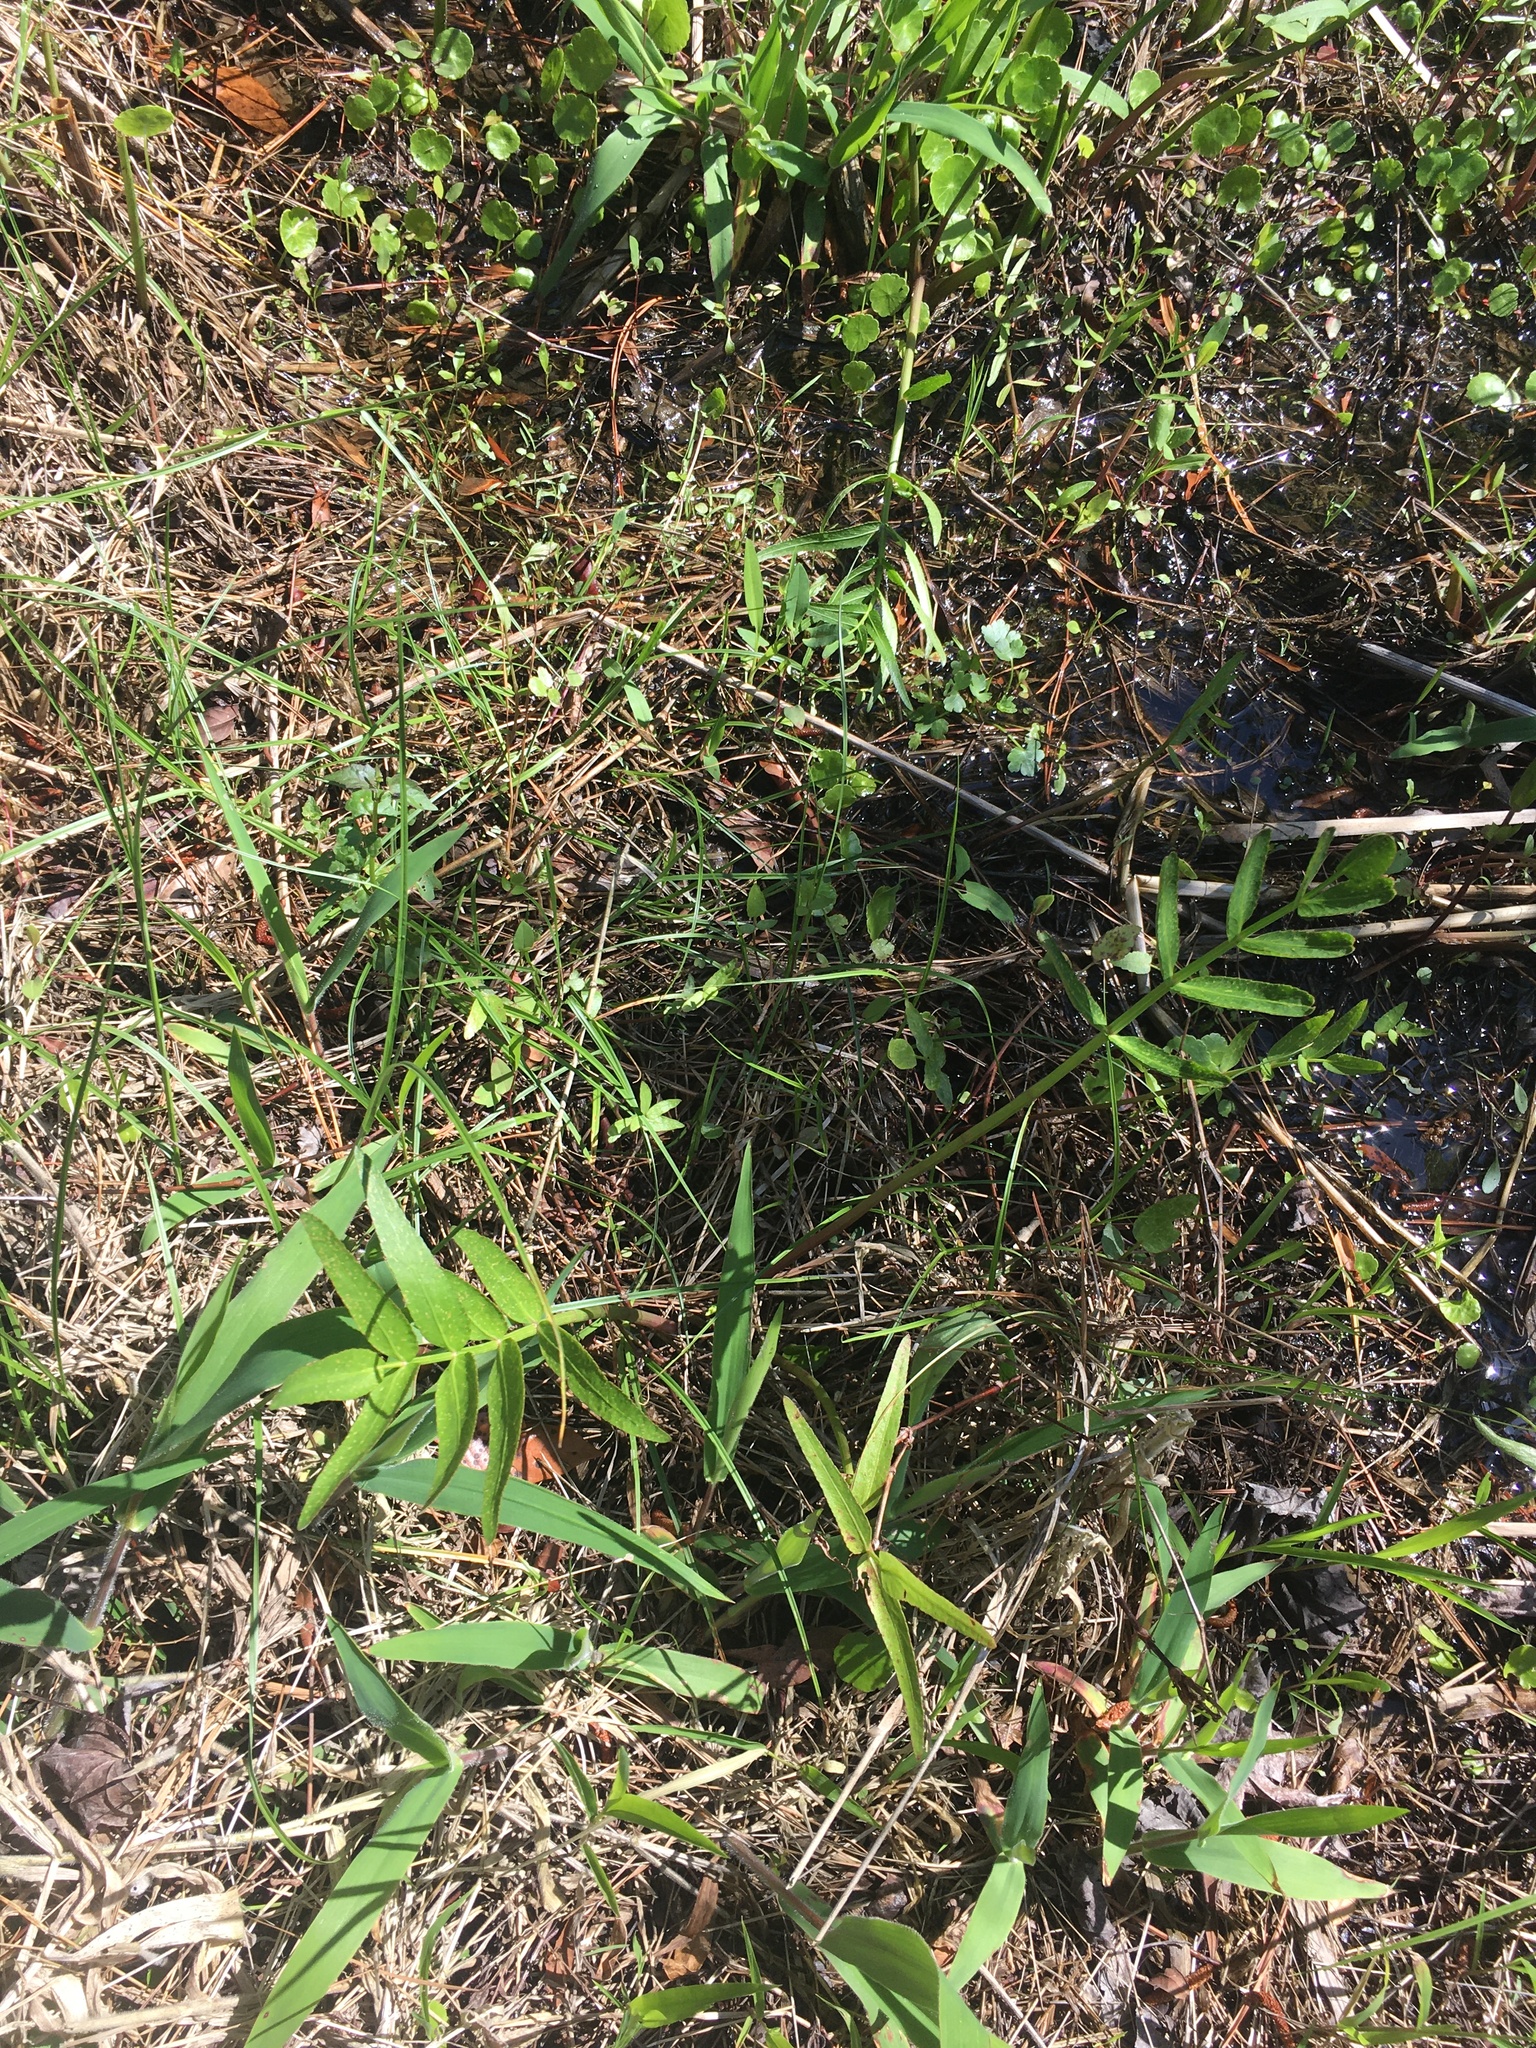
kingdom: Plantae
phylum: Tracheophyta
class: Magnoliopsida
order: Apiales
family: Apiaceae
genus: Sium
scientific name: Sium suave
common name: Hemlock water-parsnip
